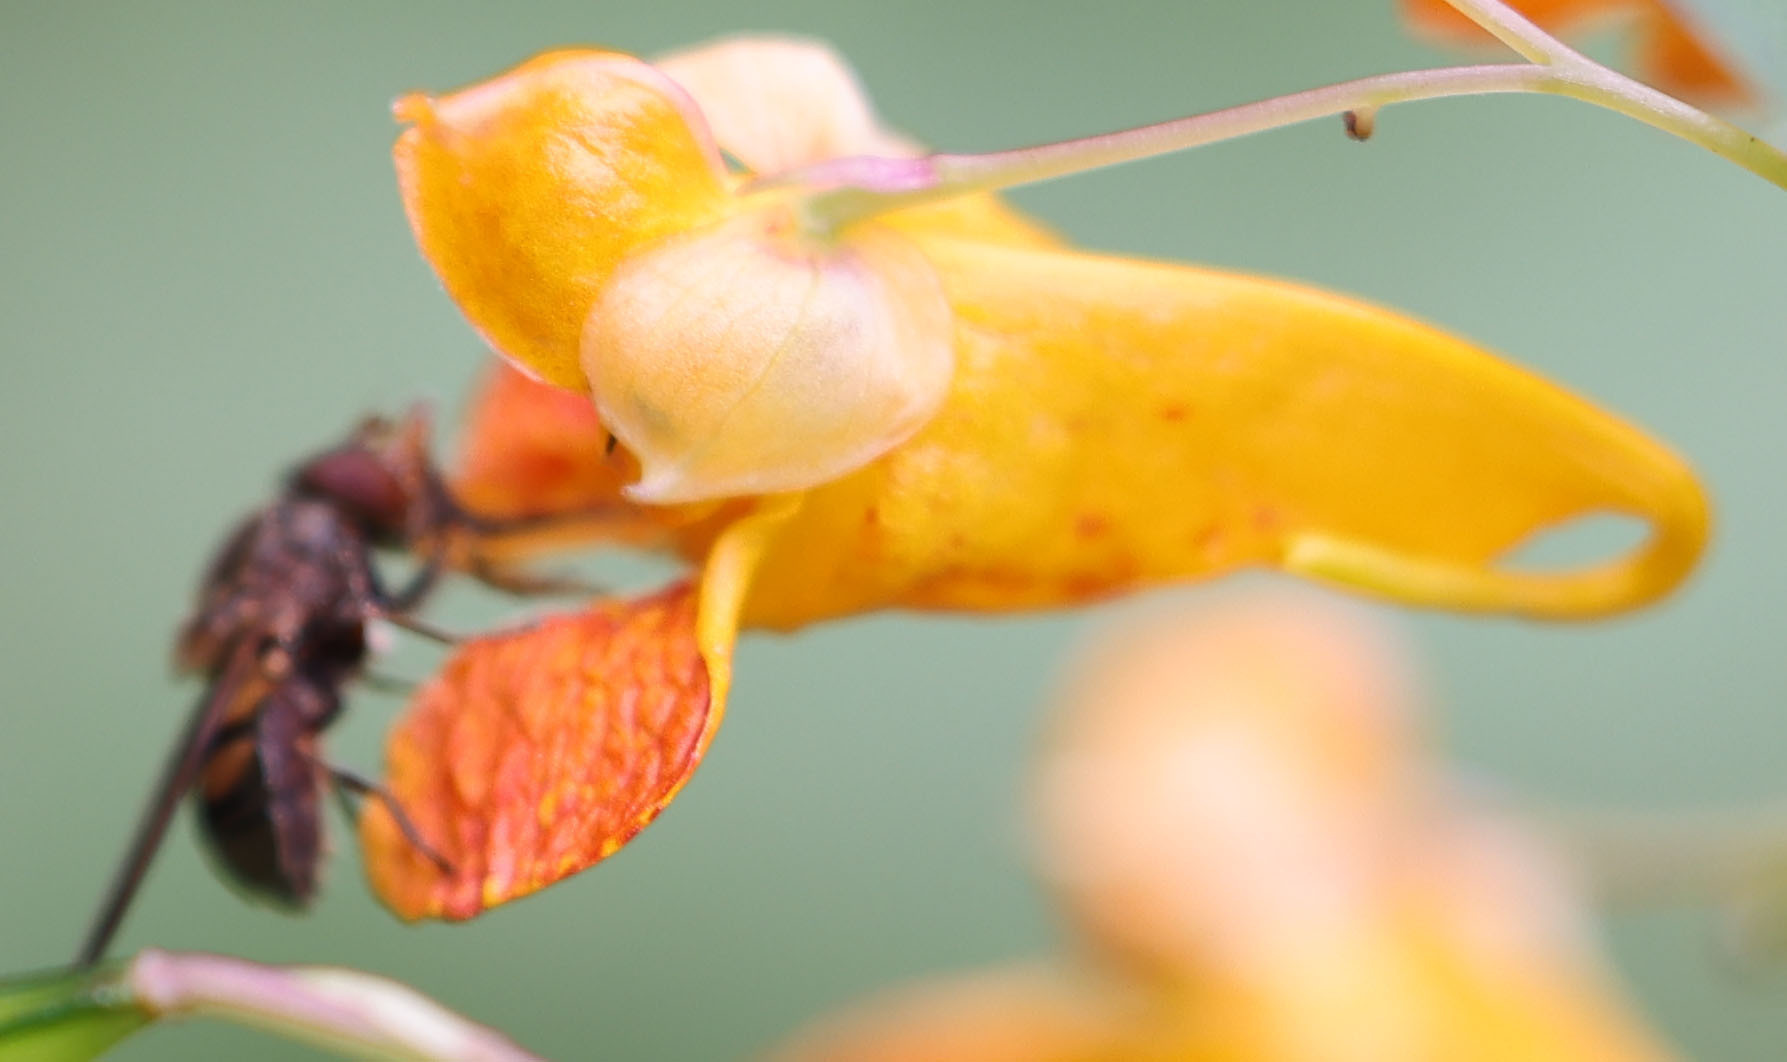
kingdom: Plantae
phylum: Tracheophyta
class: Magnoliopsida
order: Ericales
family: Balsaminaceae
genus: Impatiens
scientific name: Impatiens capensis
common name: Orange balsam
